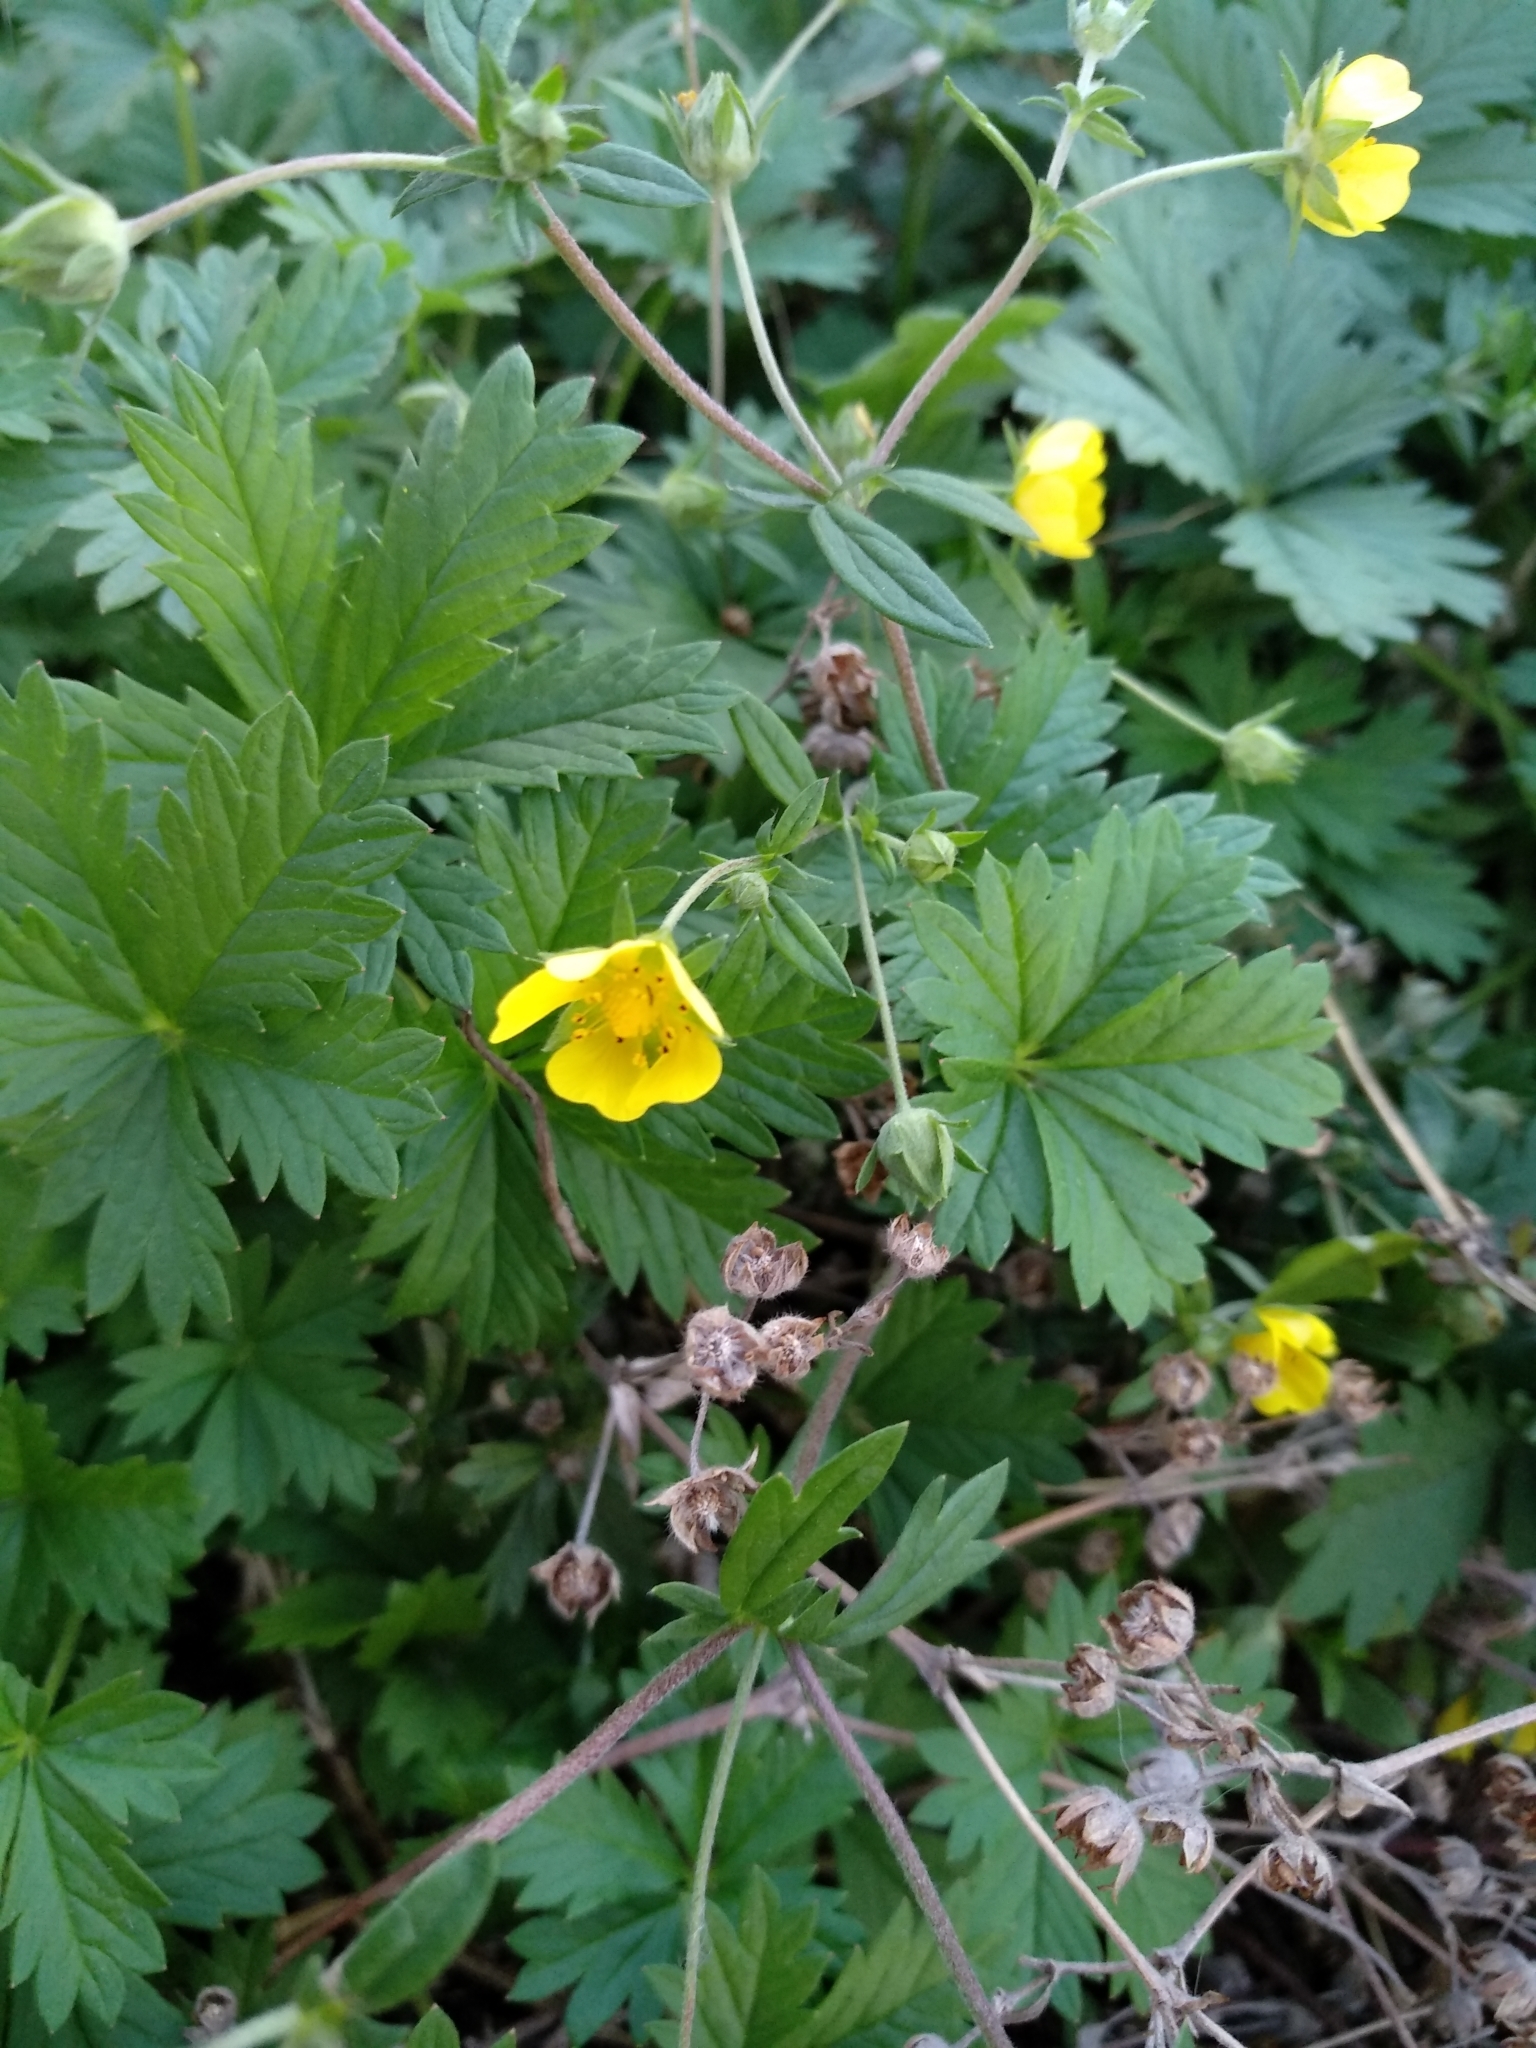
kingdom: Plantae
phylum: Tracheophyta
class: Magnoliopsida
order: Rosales
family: Rosaceae
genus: Potentilla
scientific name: Potentilla intermedia
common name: Downy cinquefoil
